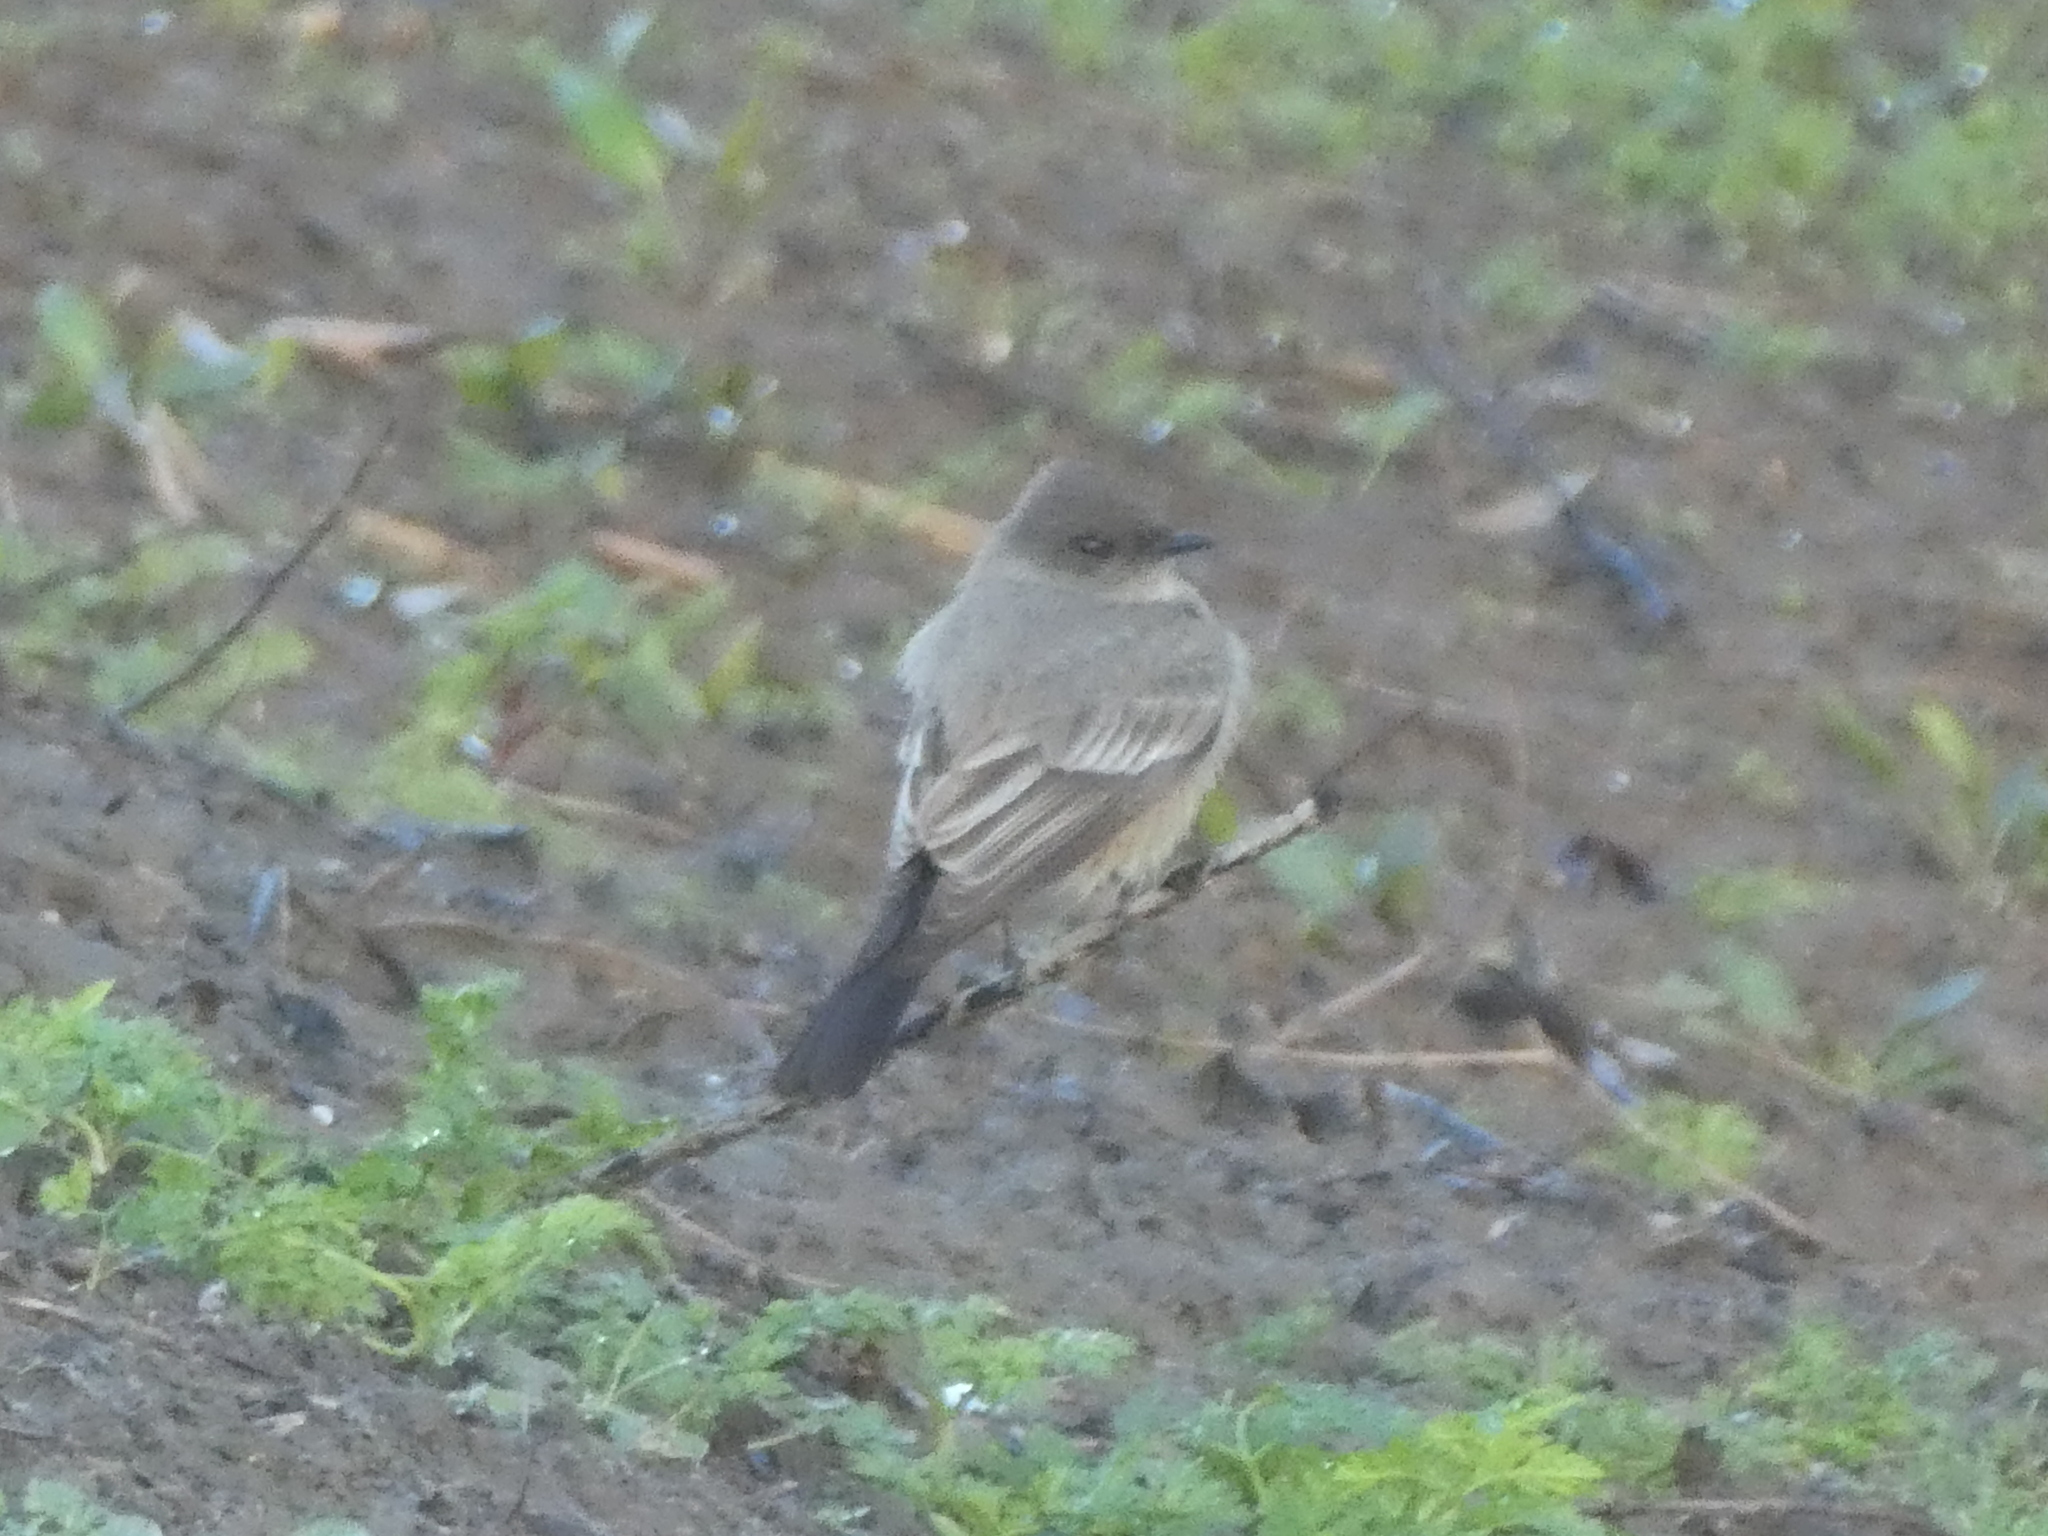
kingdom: Animalia
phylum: Chordata
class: Aves
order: Passeriformes
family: Tyrannidae
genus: Sayornis
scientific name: Sayornis saya
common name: Say's phoebe
